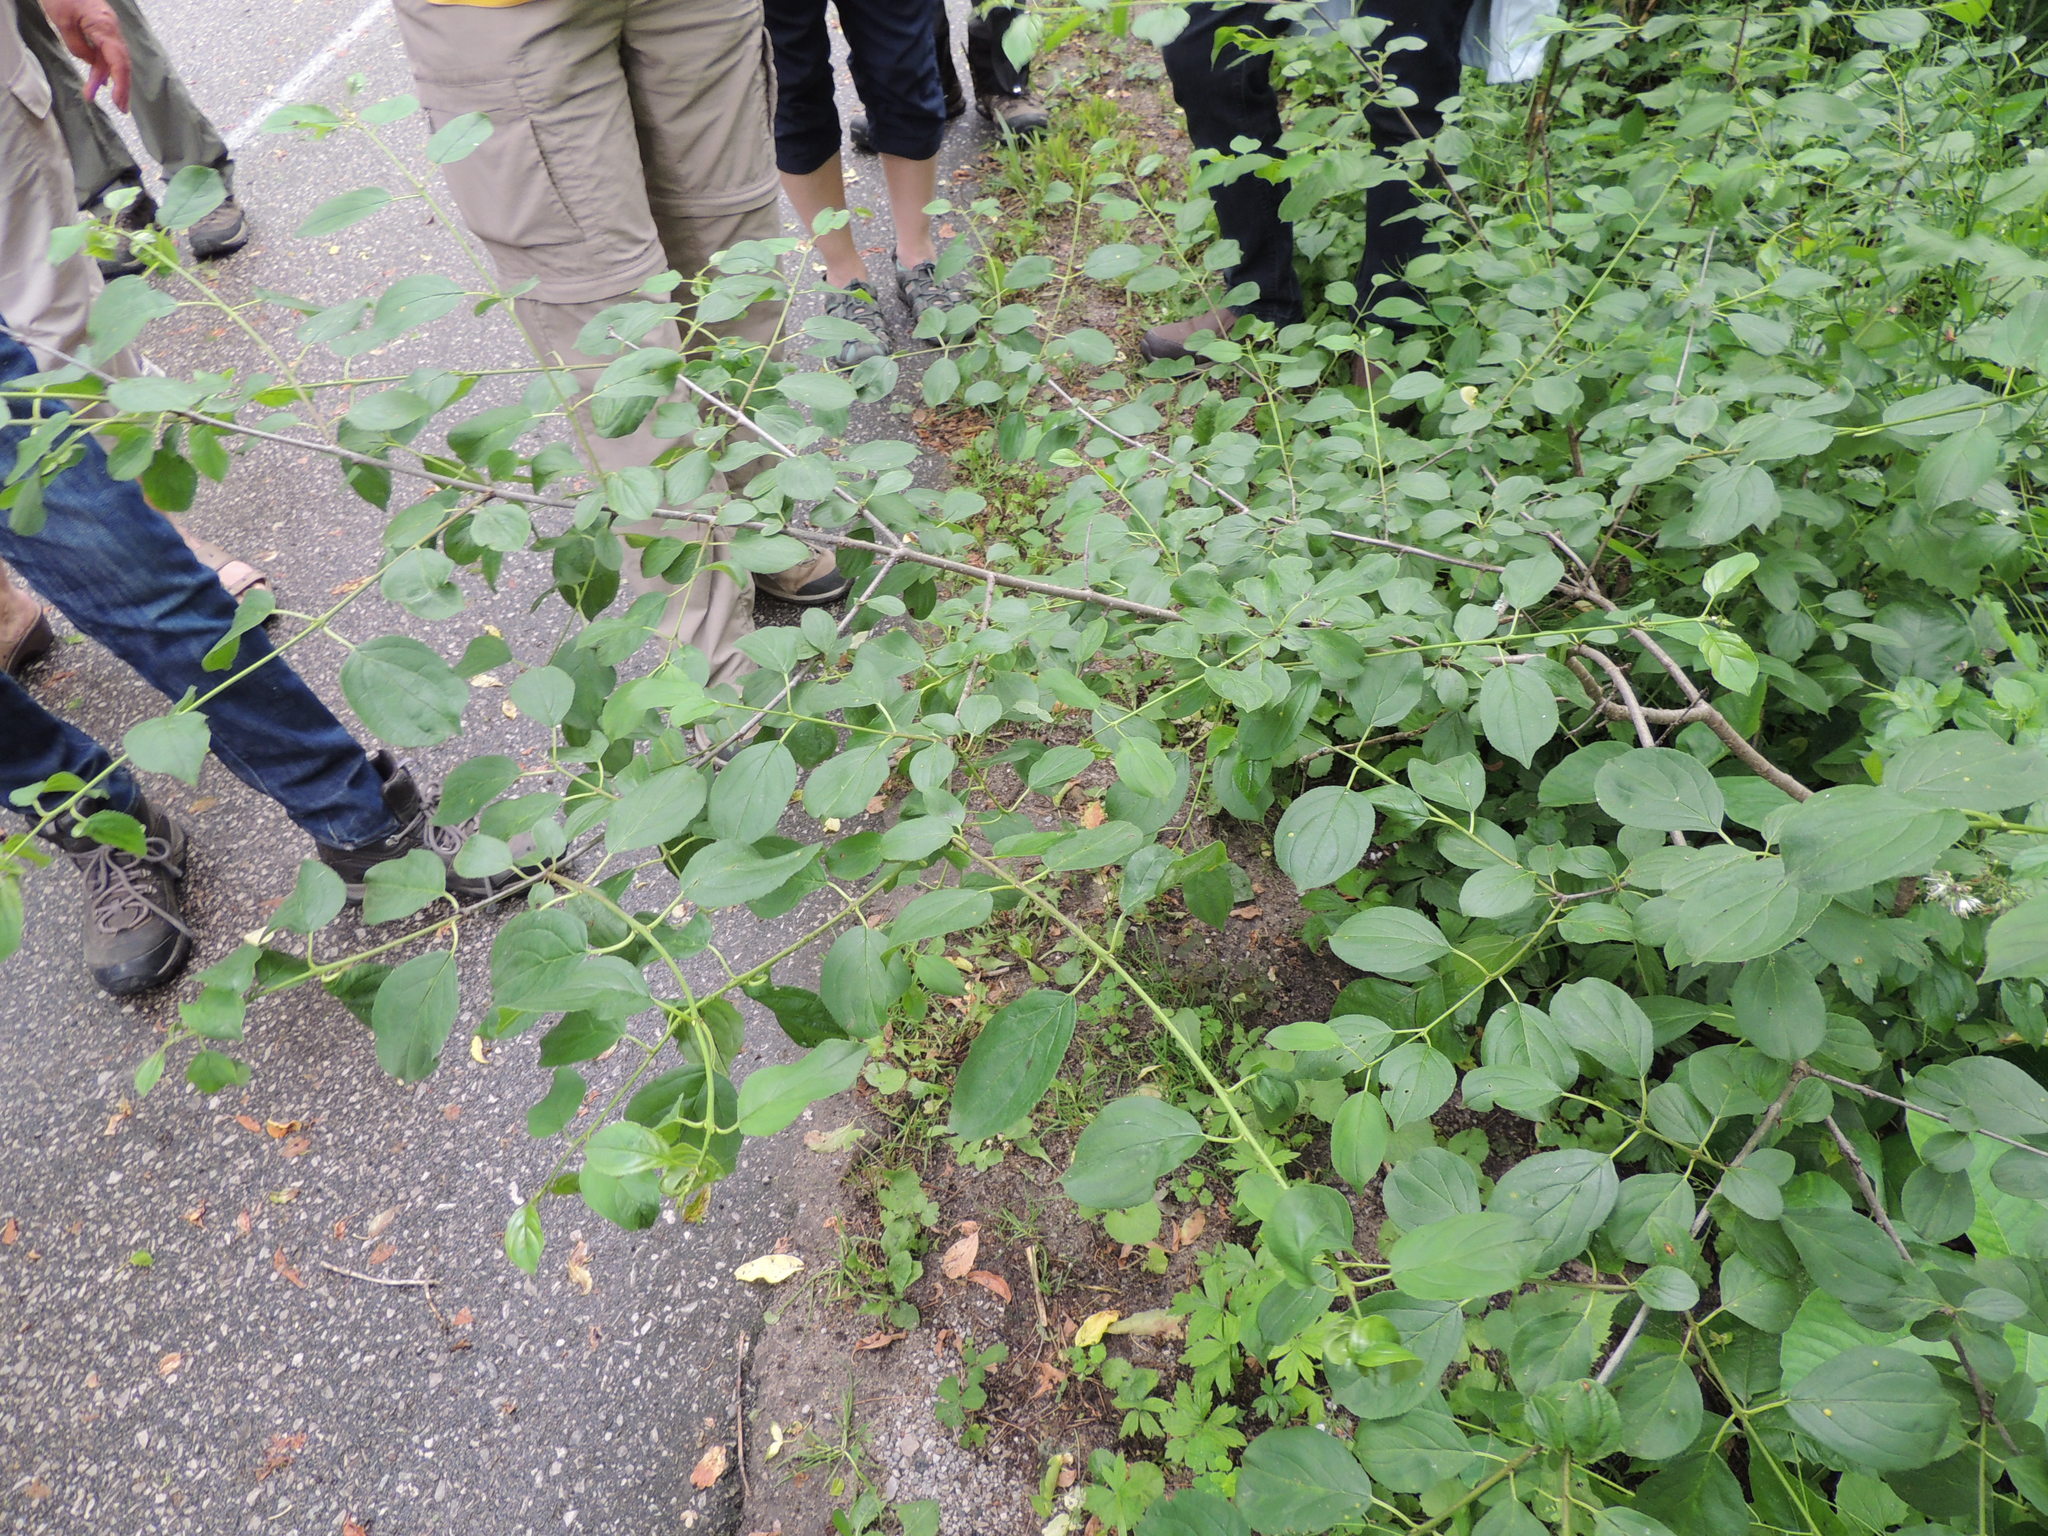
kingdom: Plantae
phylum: Tracheophyta
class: Magnoliopsida
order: Rosales
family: Rhamnaceae
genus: Rhamnus
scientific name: Rhamnus cathartica
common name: Common buckthorn
